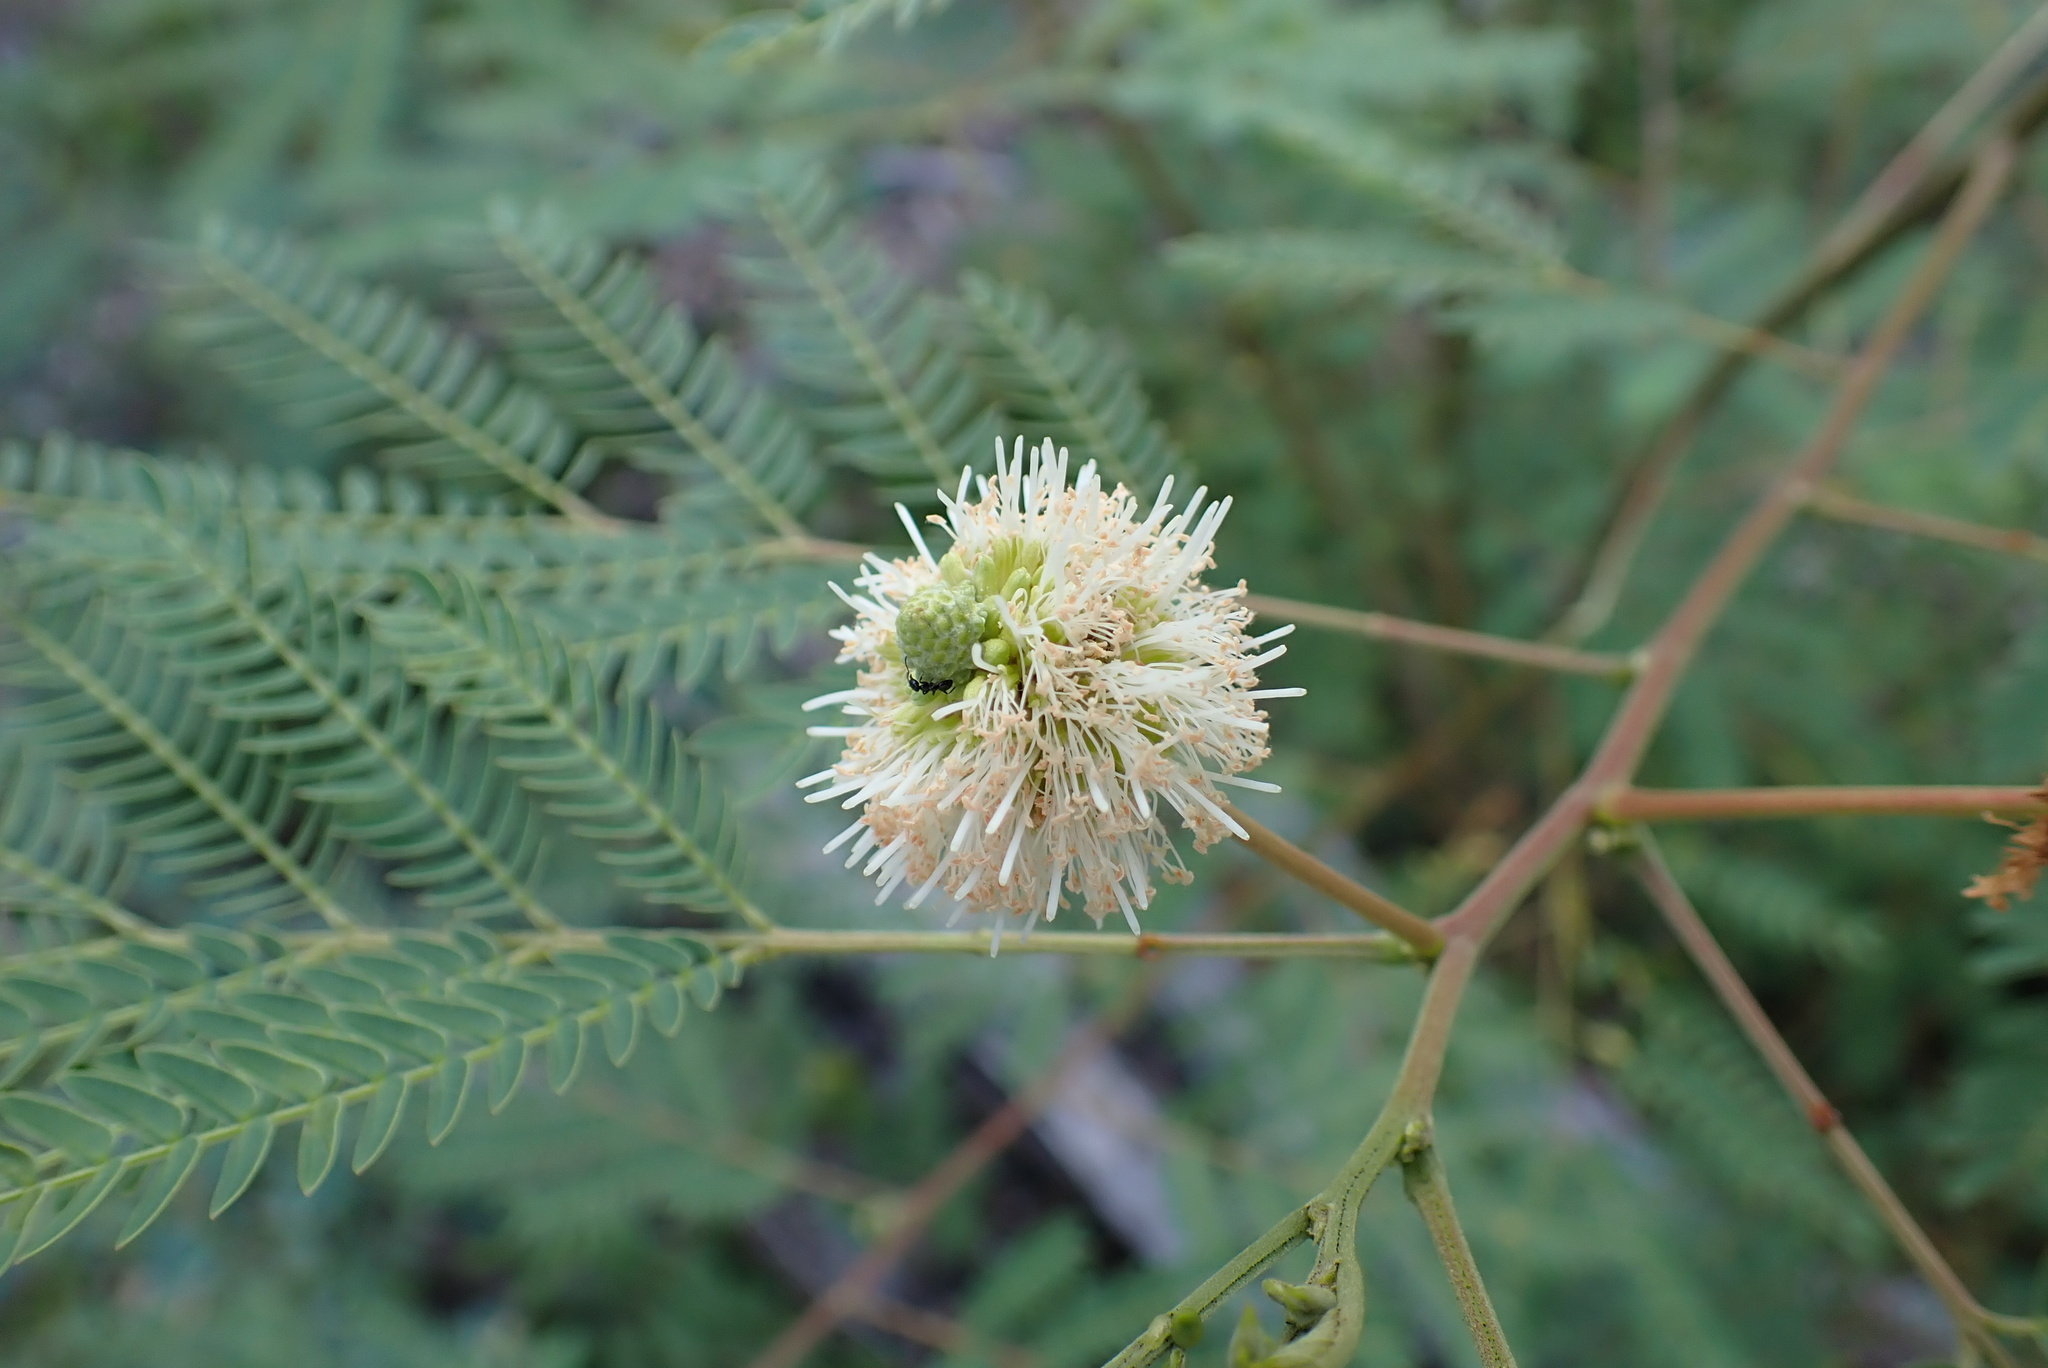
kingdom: Plantae
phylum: Tracheophyta
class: Magnoliopsida
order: Fabales
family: Fabaceae
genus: Leucaena
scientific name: Leucaena leucocephala
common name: White leadtree
